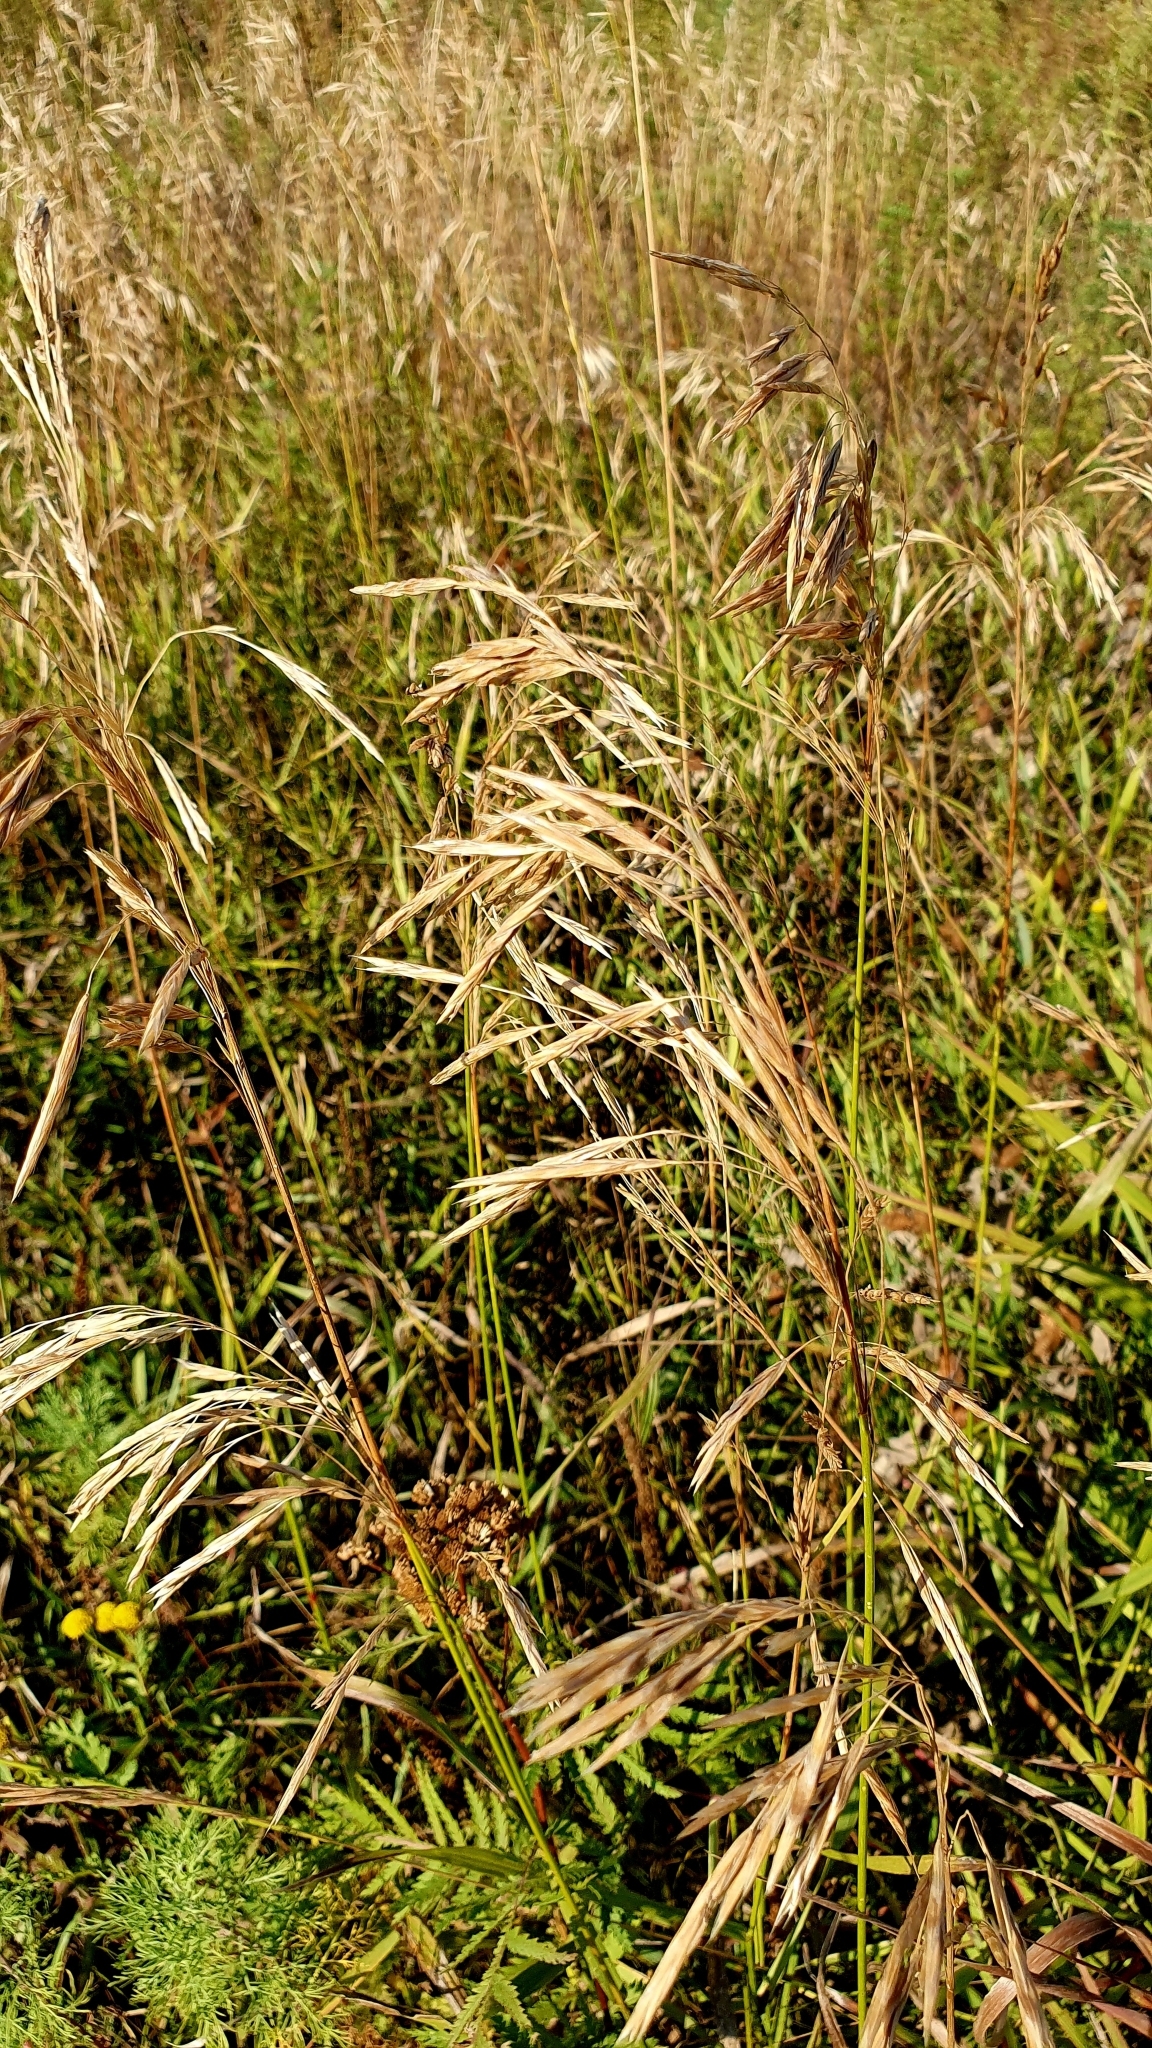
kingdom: Plantae
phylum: Tracheophyta
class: Liliopsida
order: Poales
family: Poaceae
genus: Bromus
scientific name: Bromus inermis
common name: Smooth brome
